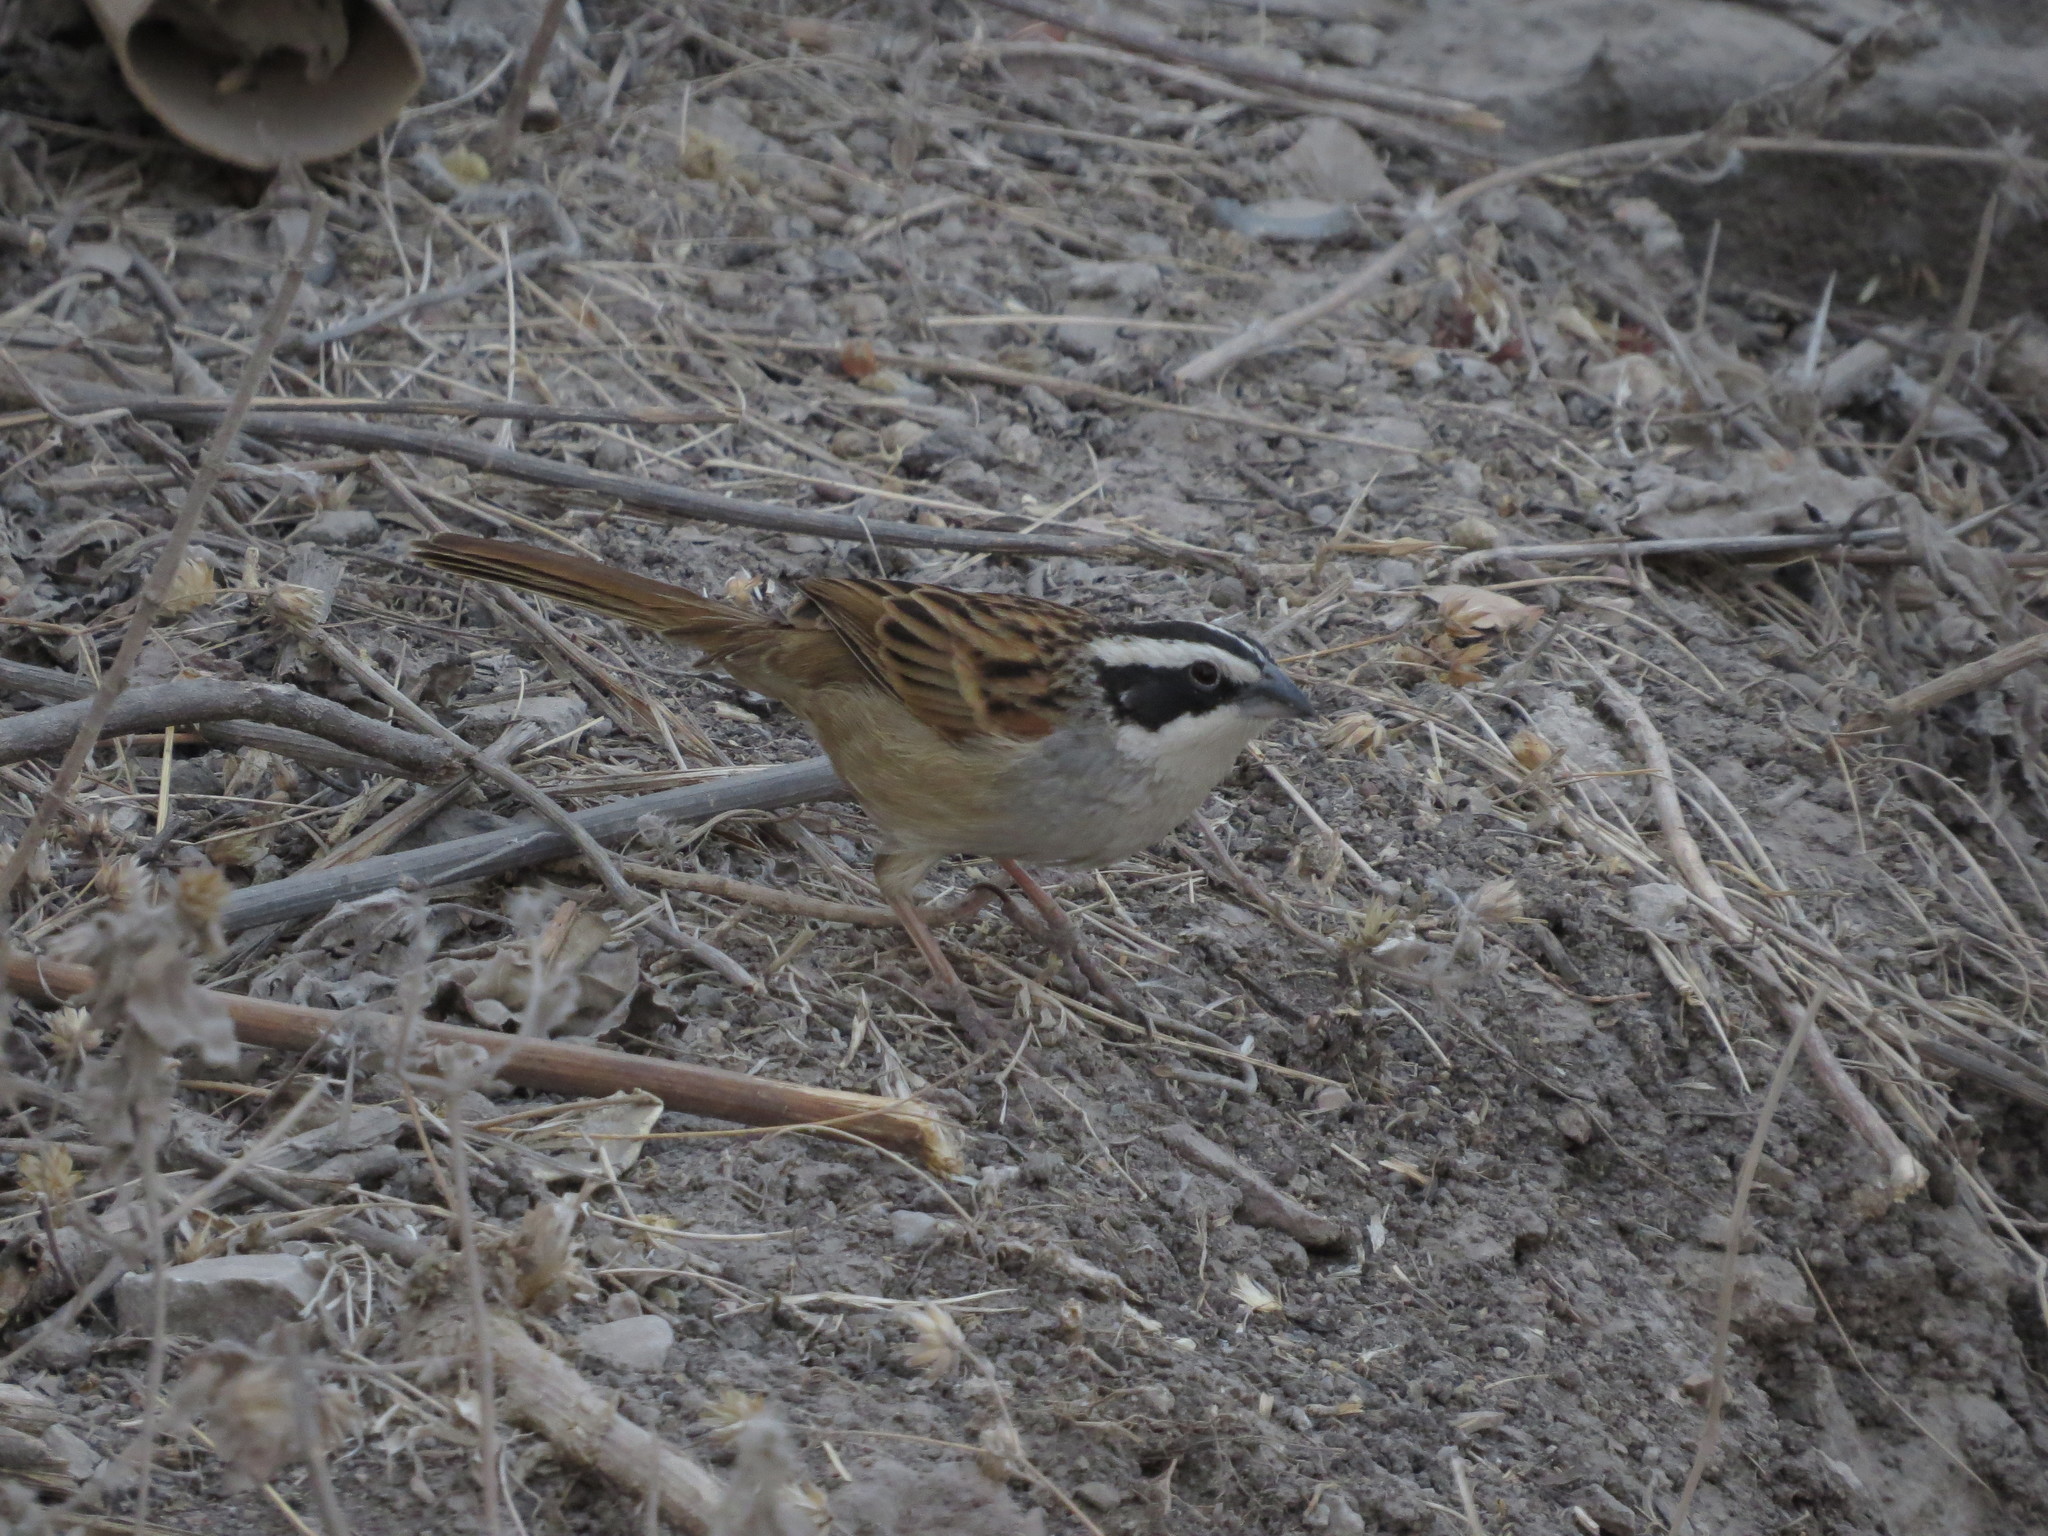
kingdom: Animalia
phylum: Chordata
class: Aves
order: Passeriformes
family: Passerellidae
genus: Peucaea
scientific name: Peucaea ruficauda
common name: Stripe-headed sparrow
